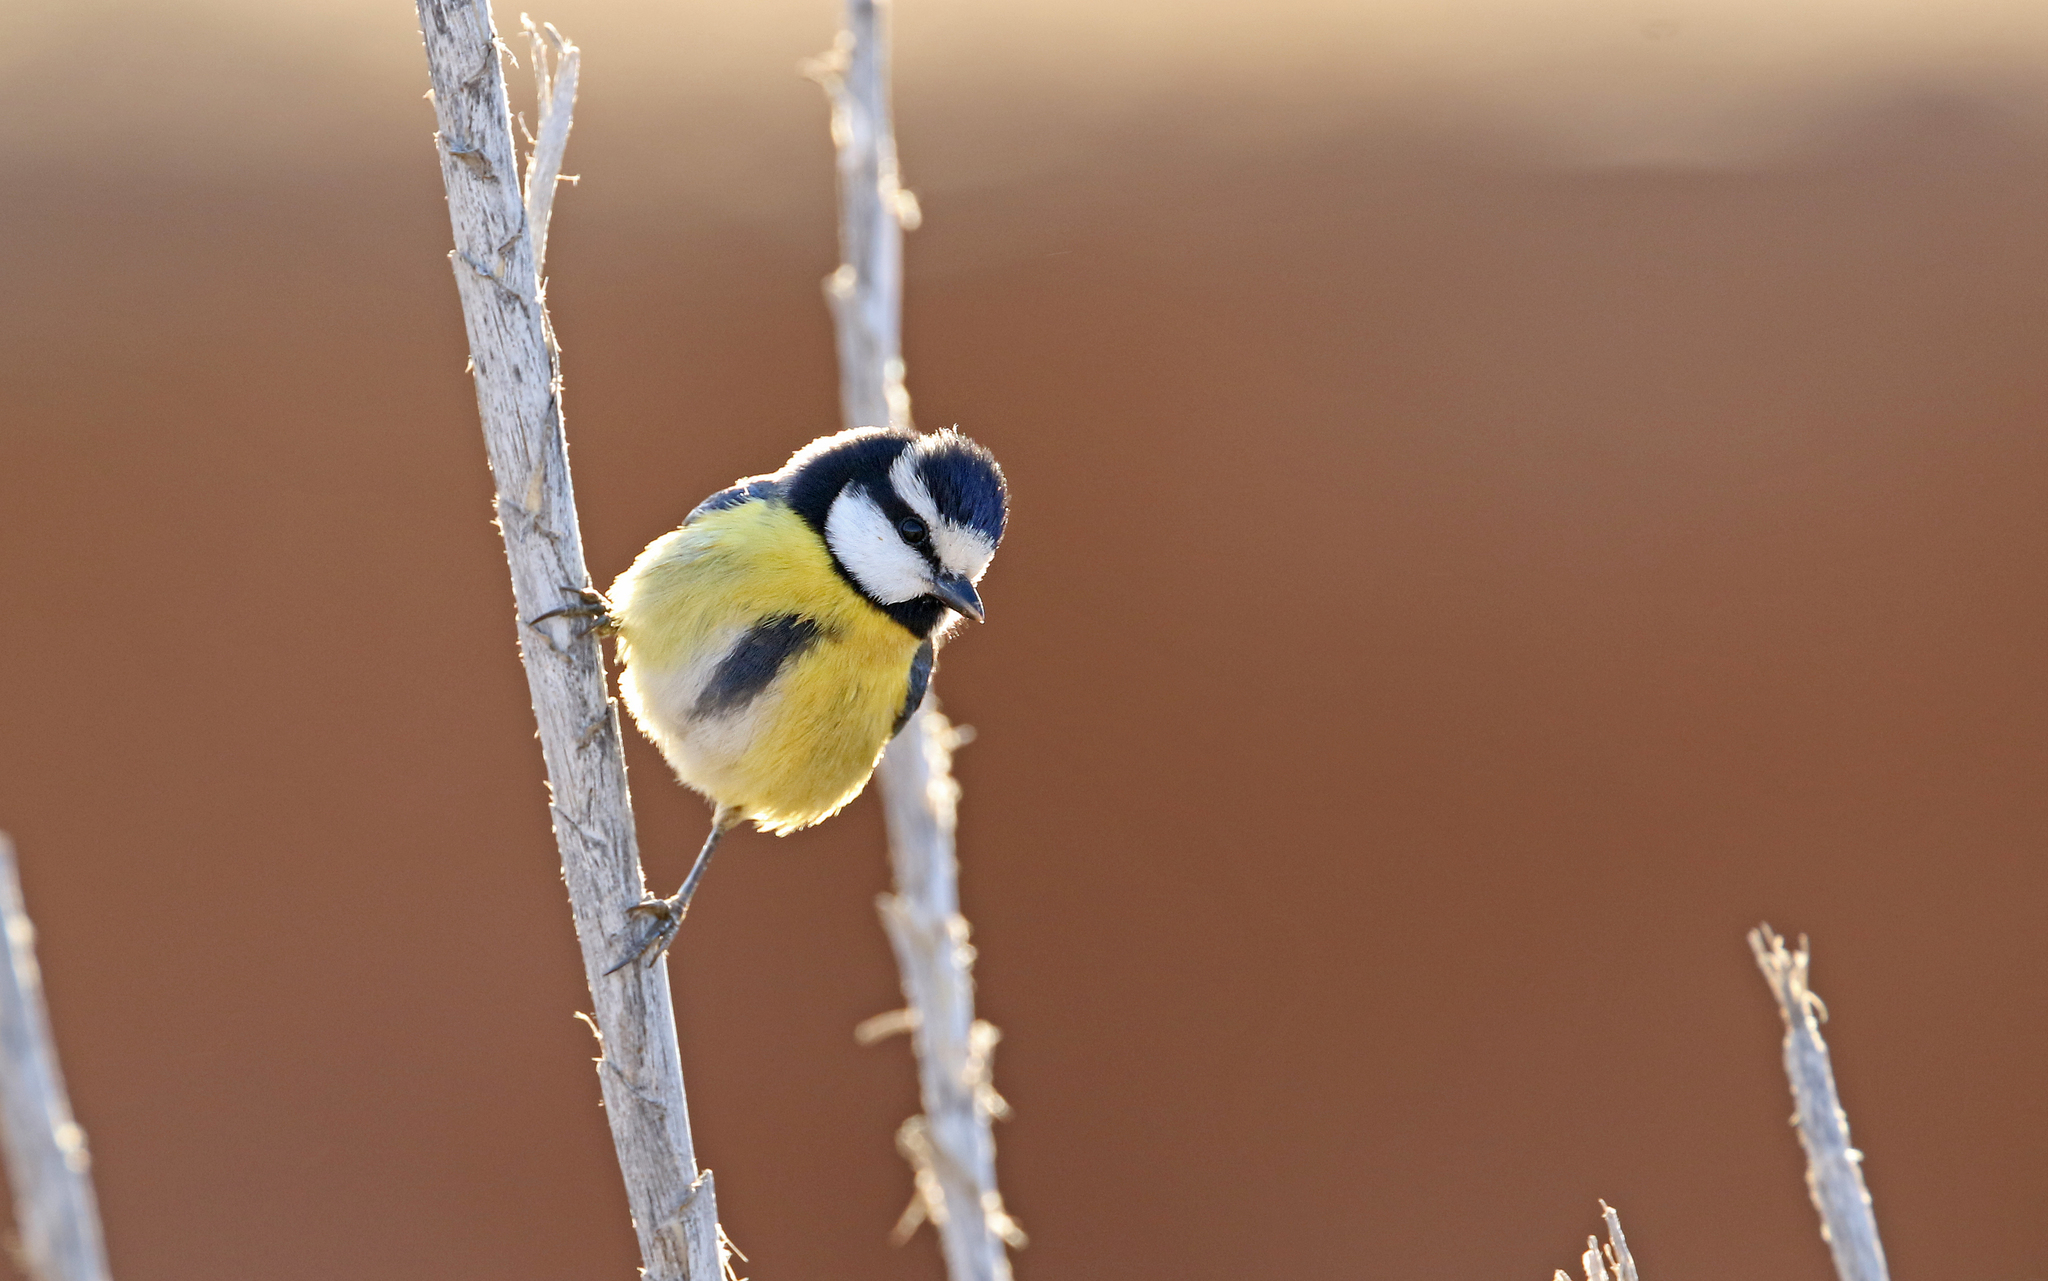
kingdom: Animalia
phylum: Chordata
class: Aves
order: Passeriformes
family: Paridae
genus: Cyanistes
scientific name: Cyanistes teneriffae
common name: African blue tit
